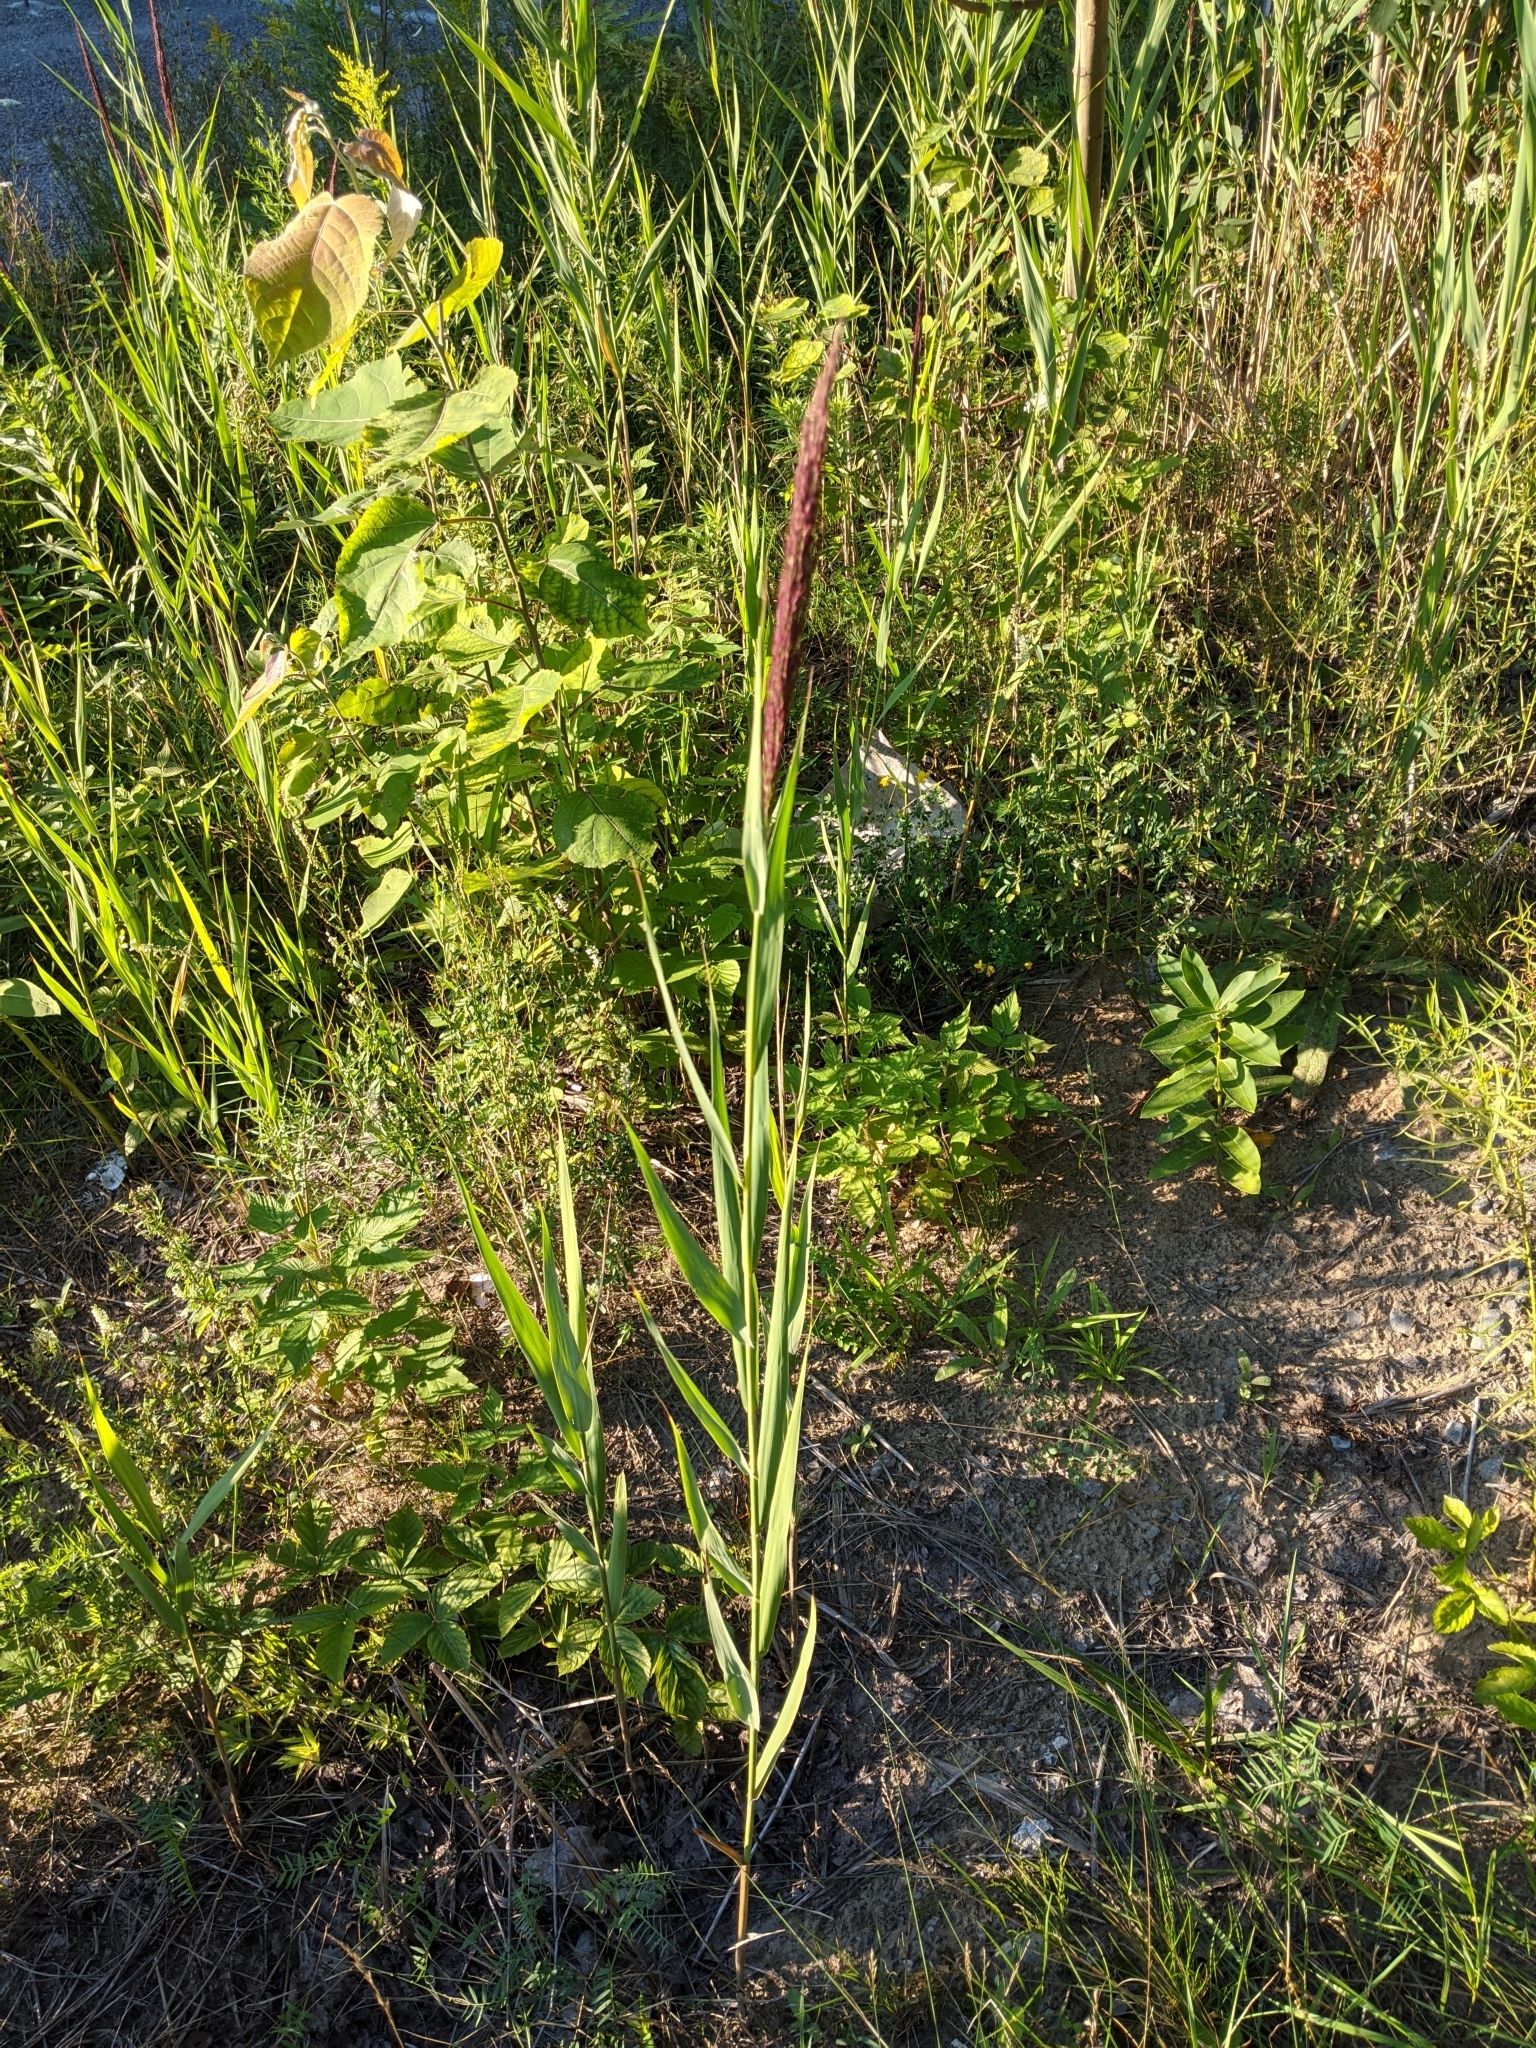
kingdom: Plantae
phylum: Tracheophyta
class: Liliopsida
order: Poales
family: Poaceae
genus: Calamagrostis
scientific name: Calamagrostis canadensis
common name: Canada bluejoint
